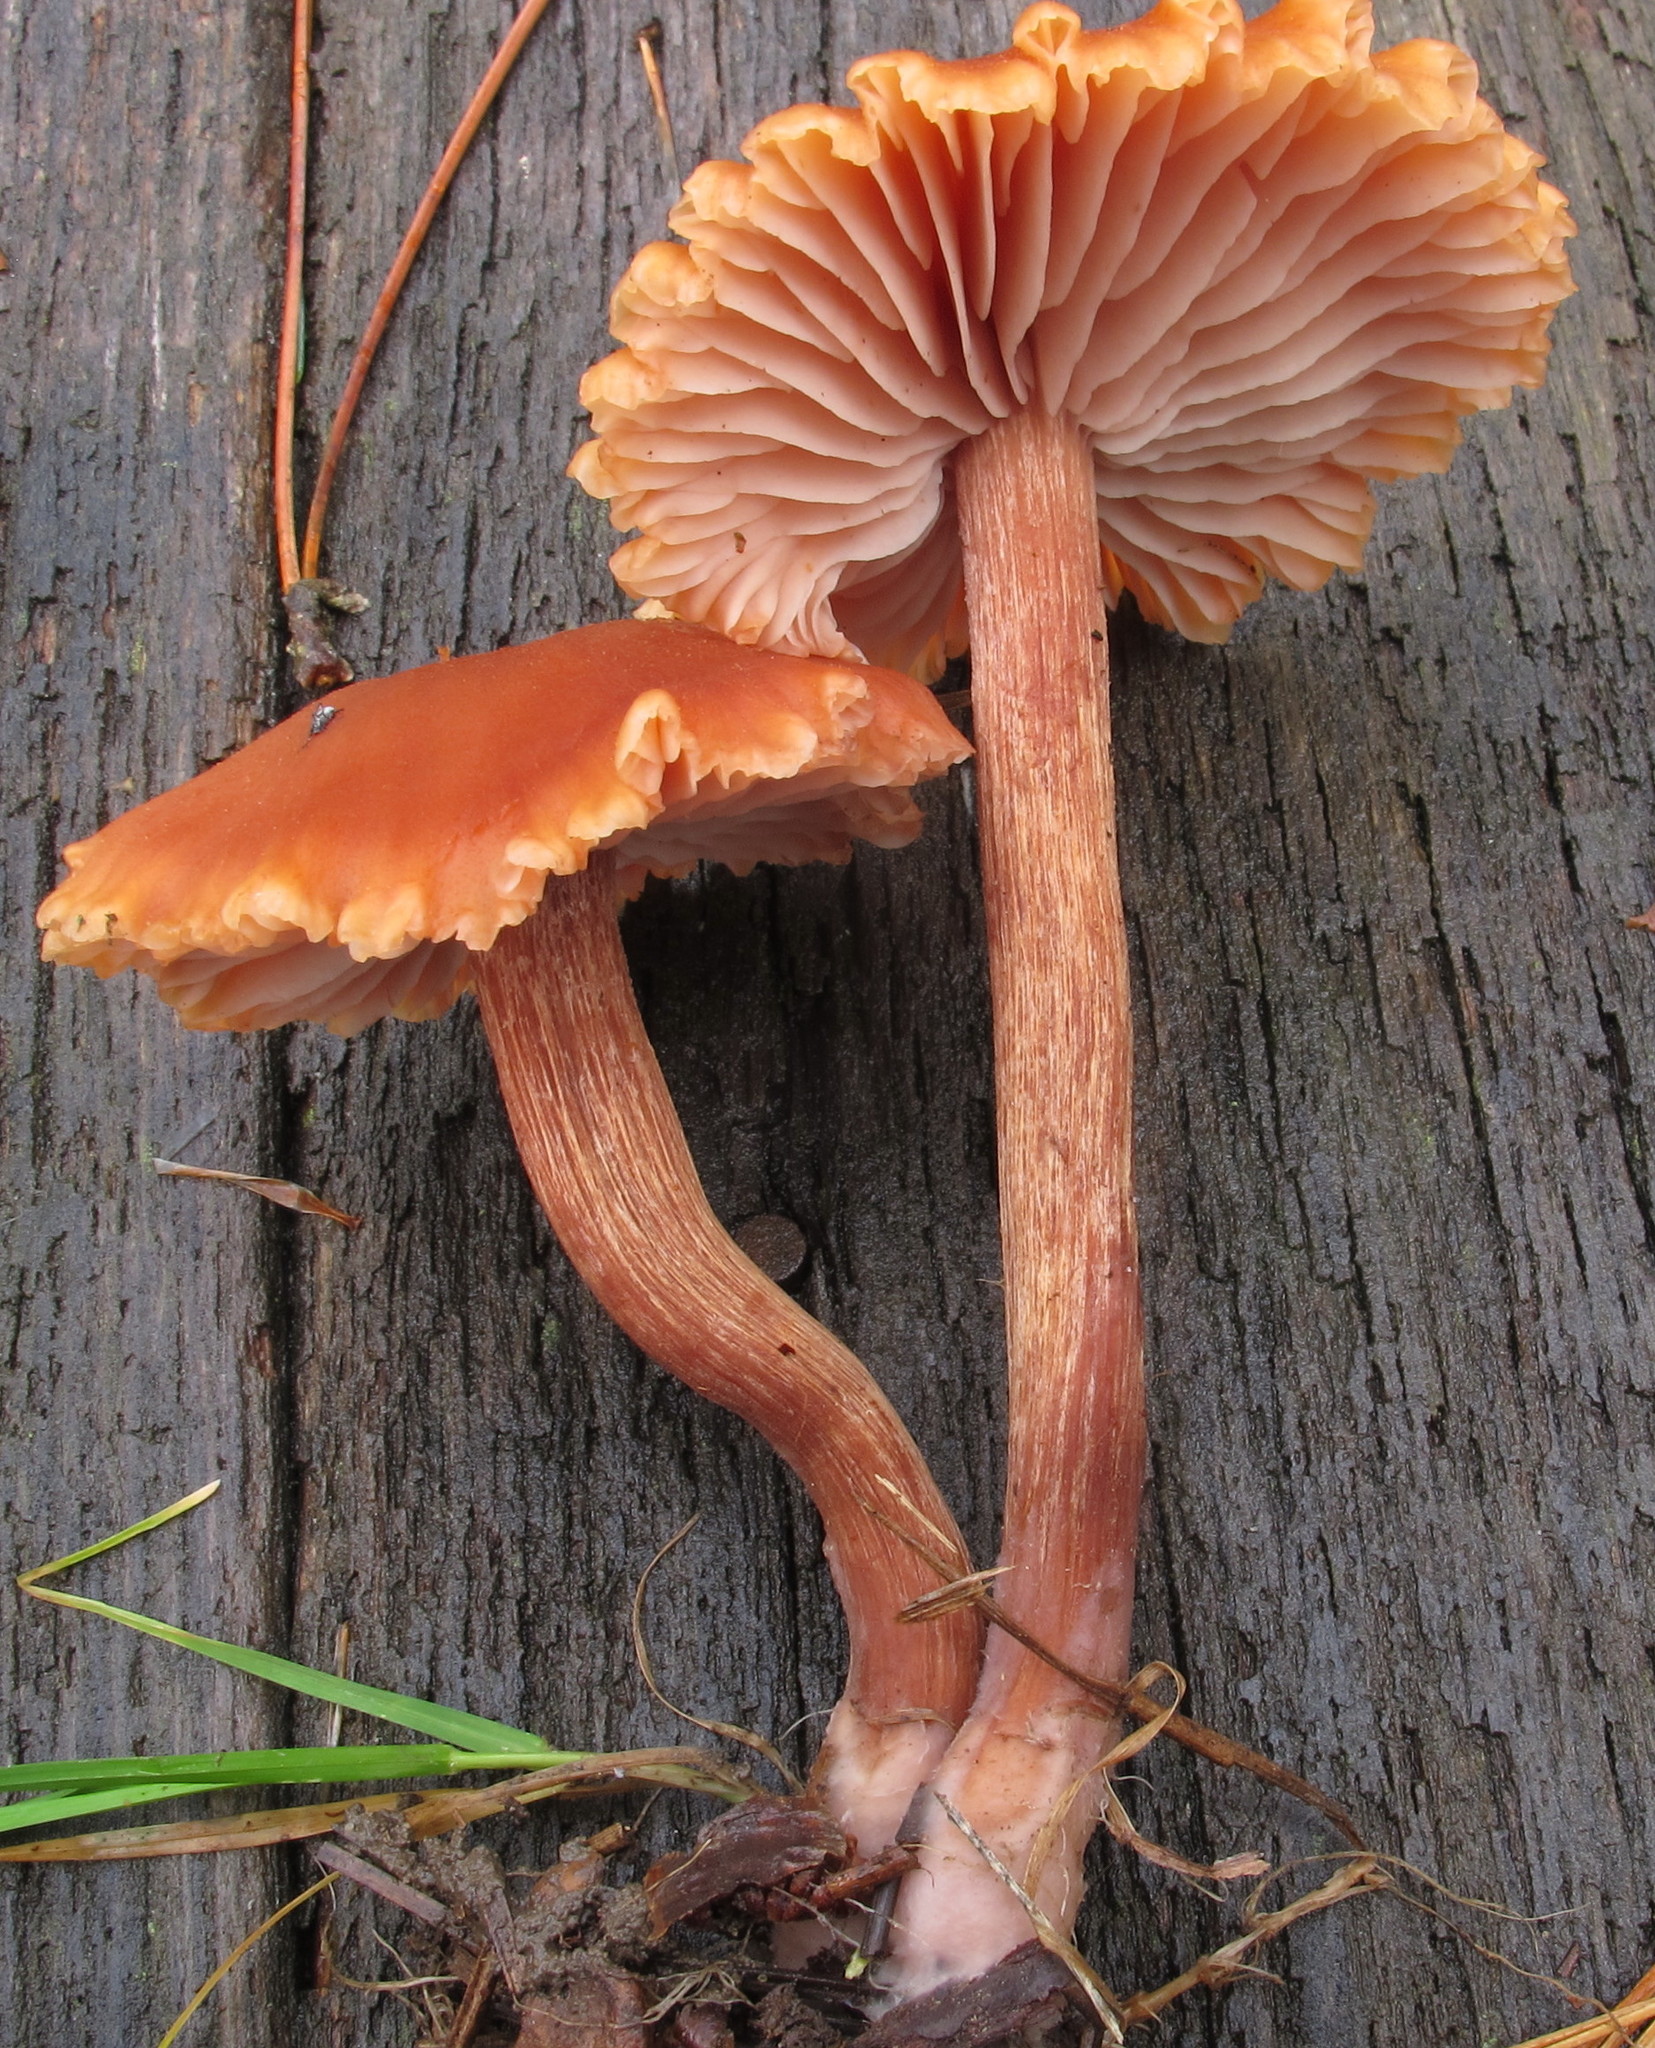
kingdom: Fungi
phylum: Basidiomycota
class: Agaricomycetes
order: Agaricales
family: Hydnangiaceae
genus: Laccaria
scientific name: Laccaria bicolor
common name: Bicoloured deceiver
